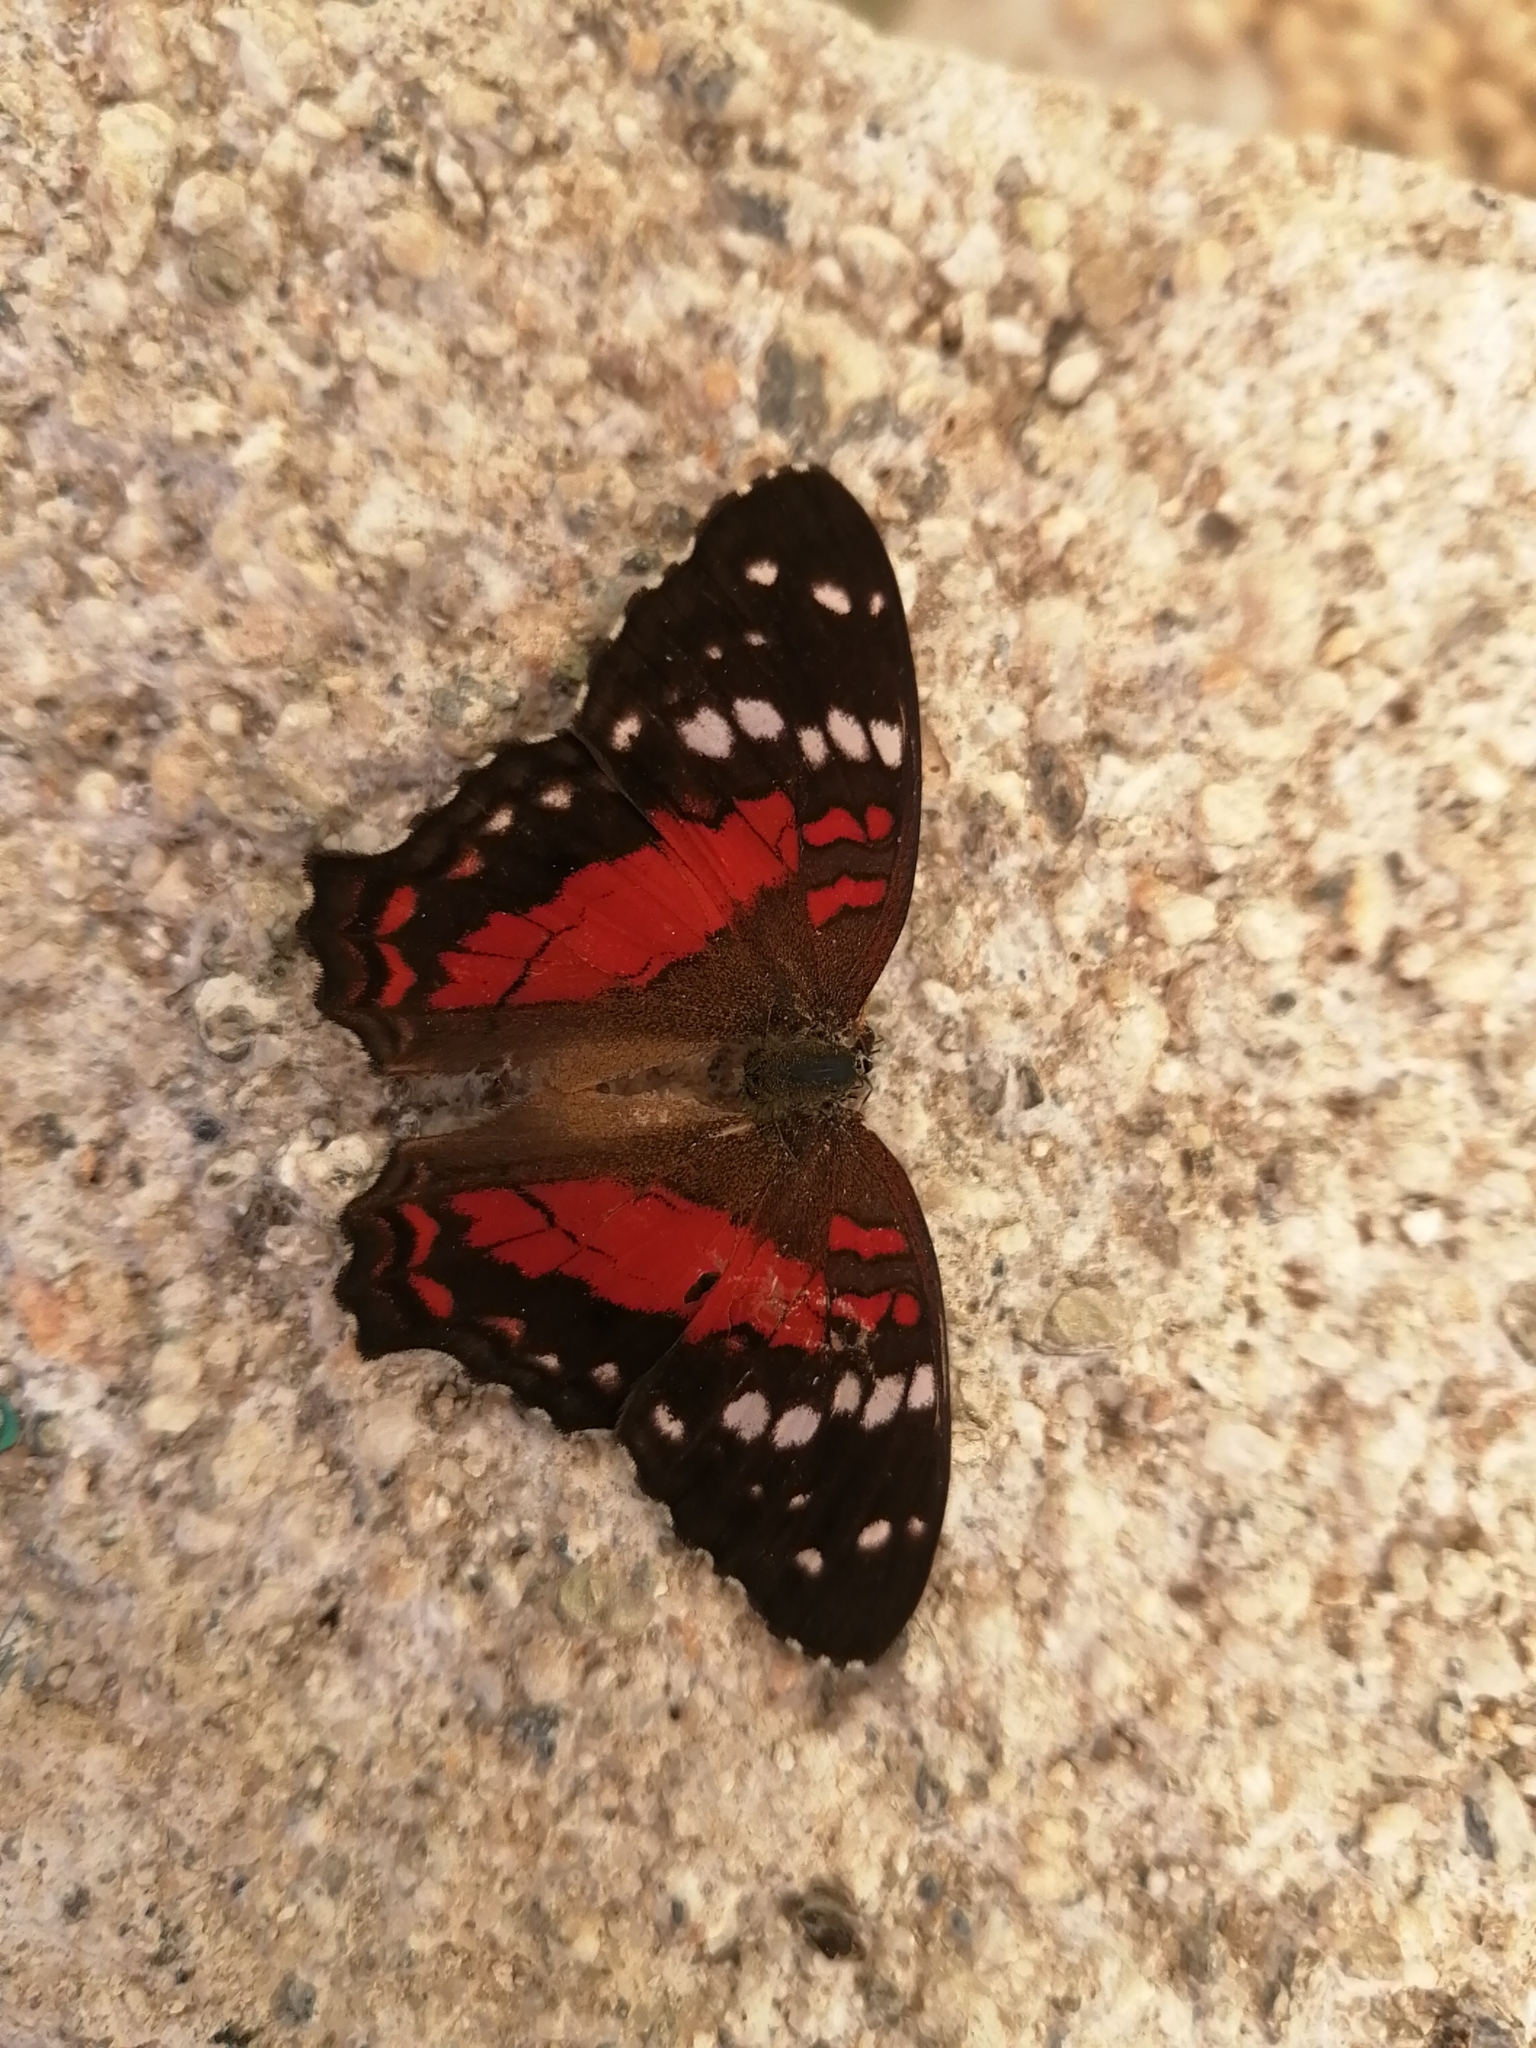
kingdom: Animalia
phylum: Arthropoda
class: Insecta
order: Lepidoptera
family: Nymphalidae
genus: Anartia
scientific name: Anartia amathea
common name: Red peacock
